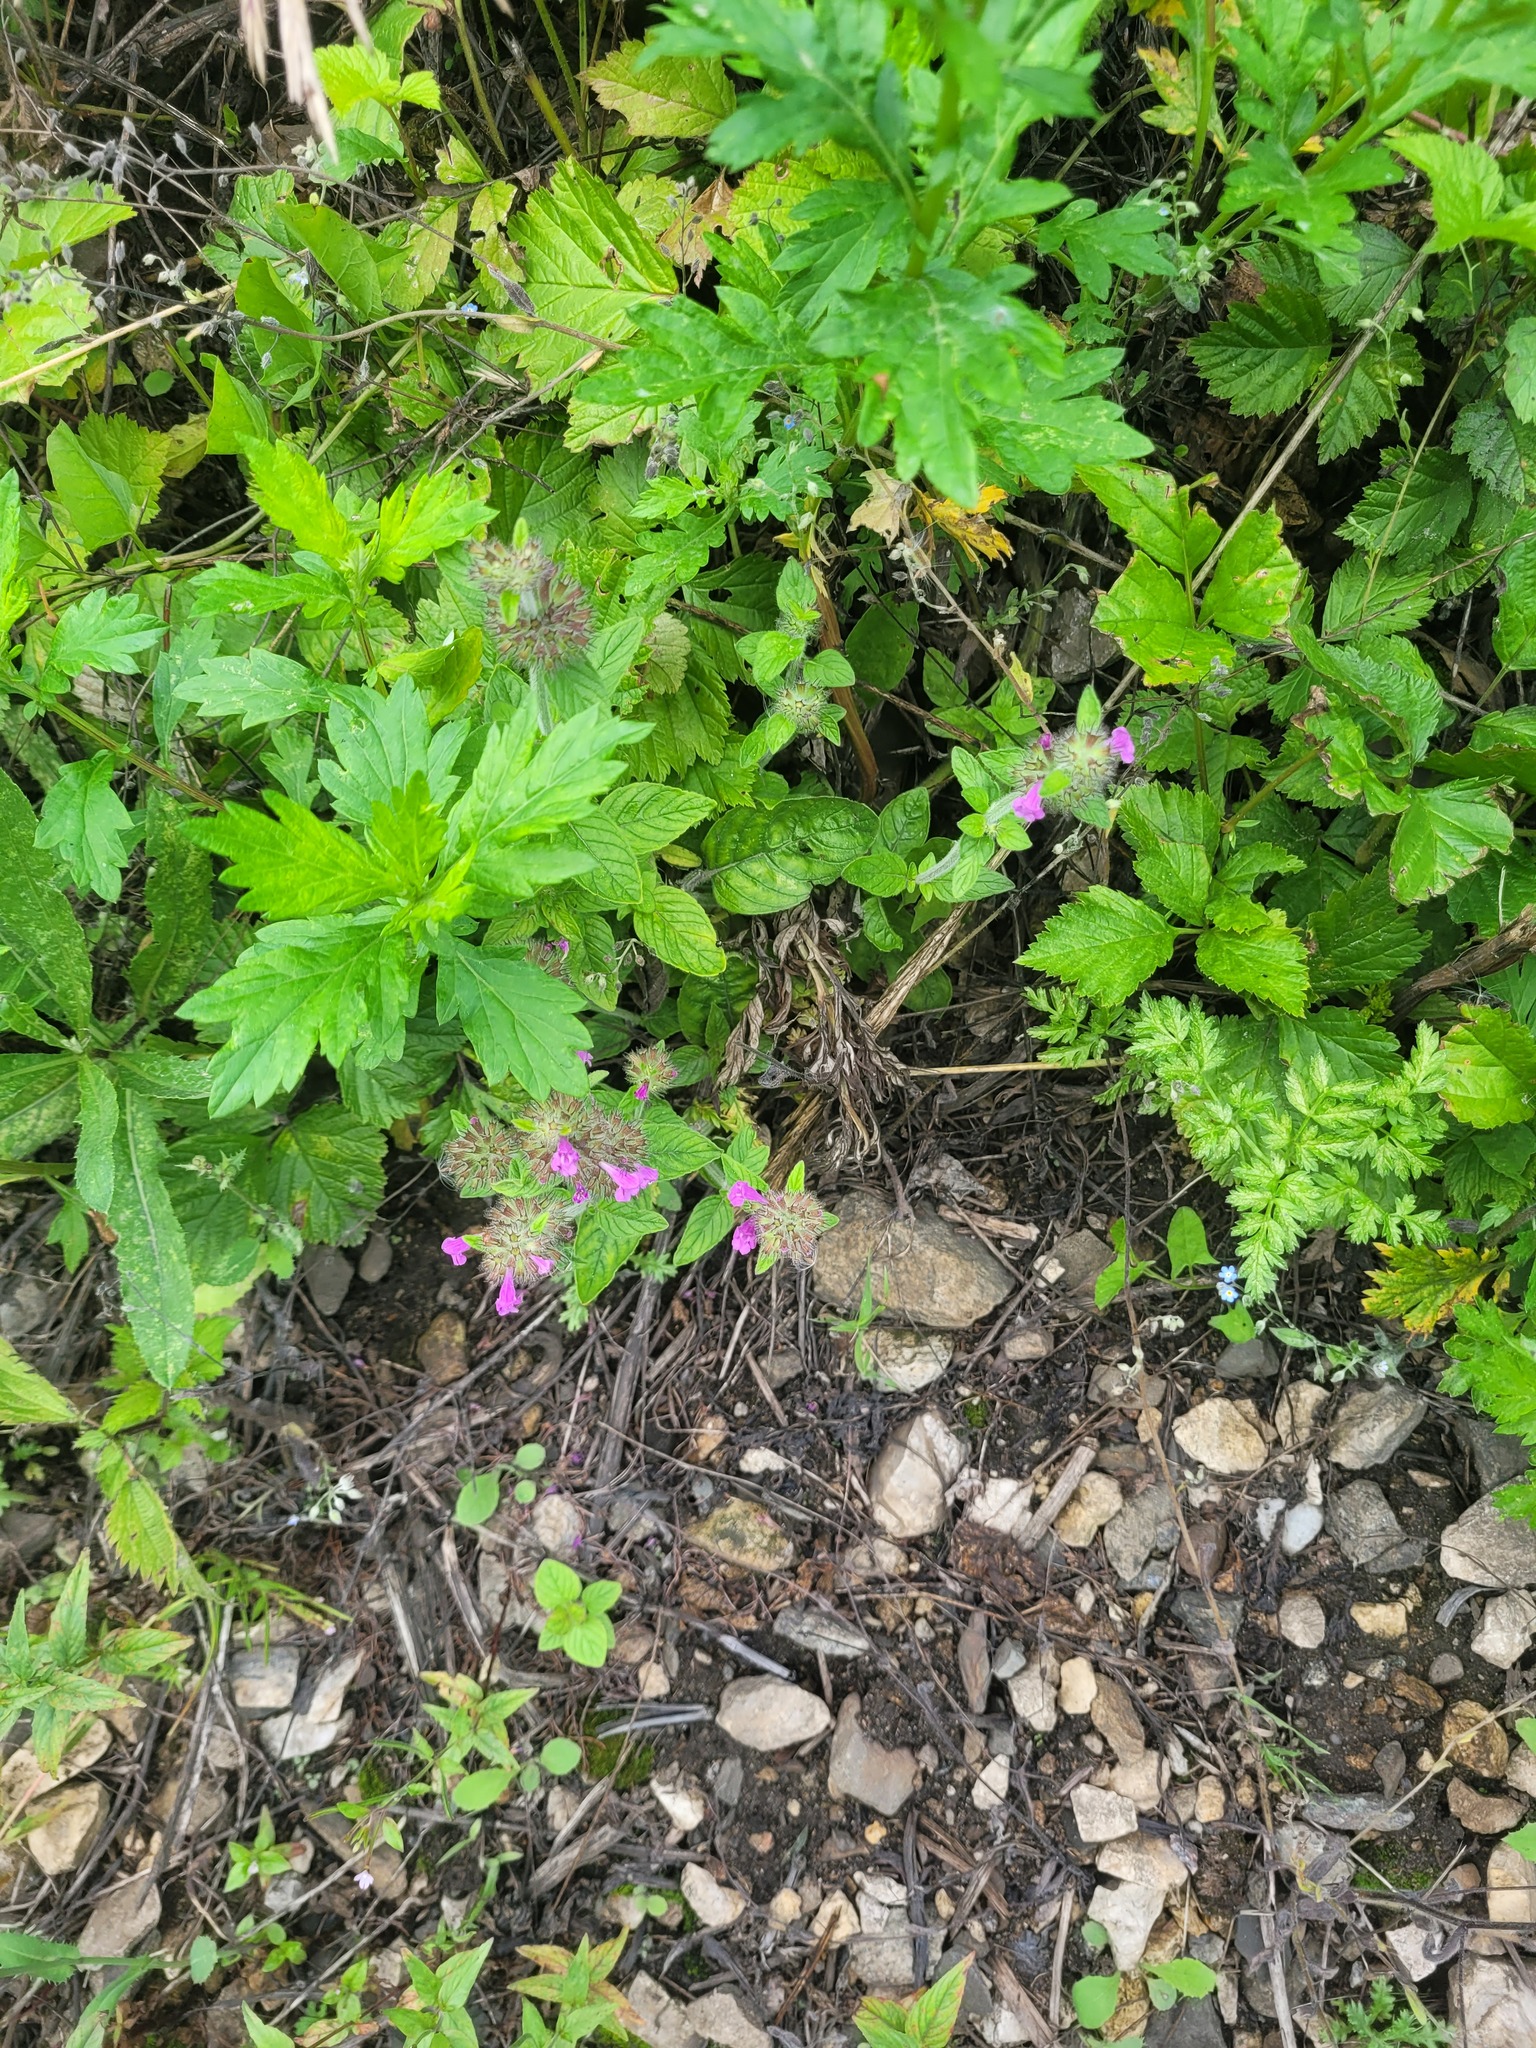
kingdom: Plantae
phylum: Tracheophyta
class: Magnoliopsida
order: Lamiales
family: Lamiaceae
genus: Clinopodium
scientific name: Clinopodium vulgare
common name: Wild basil
